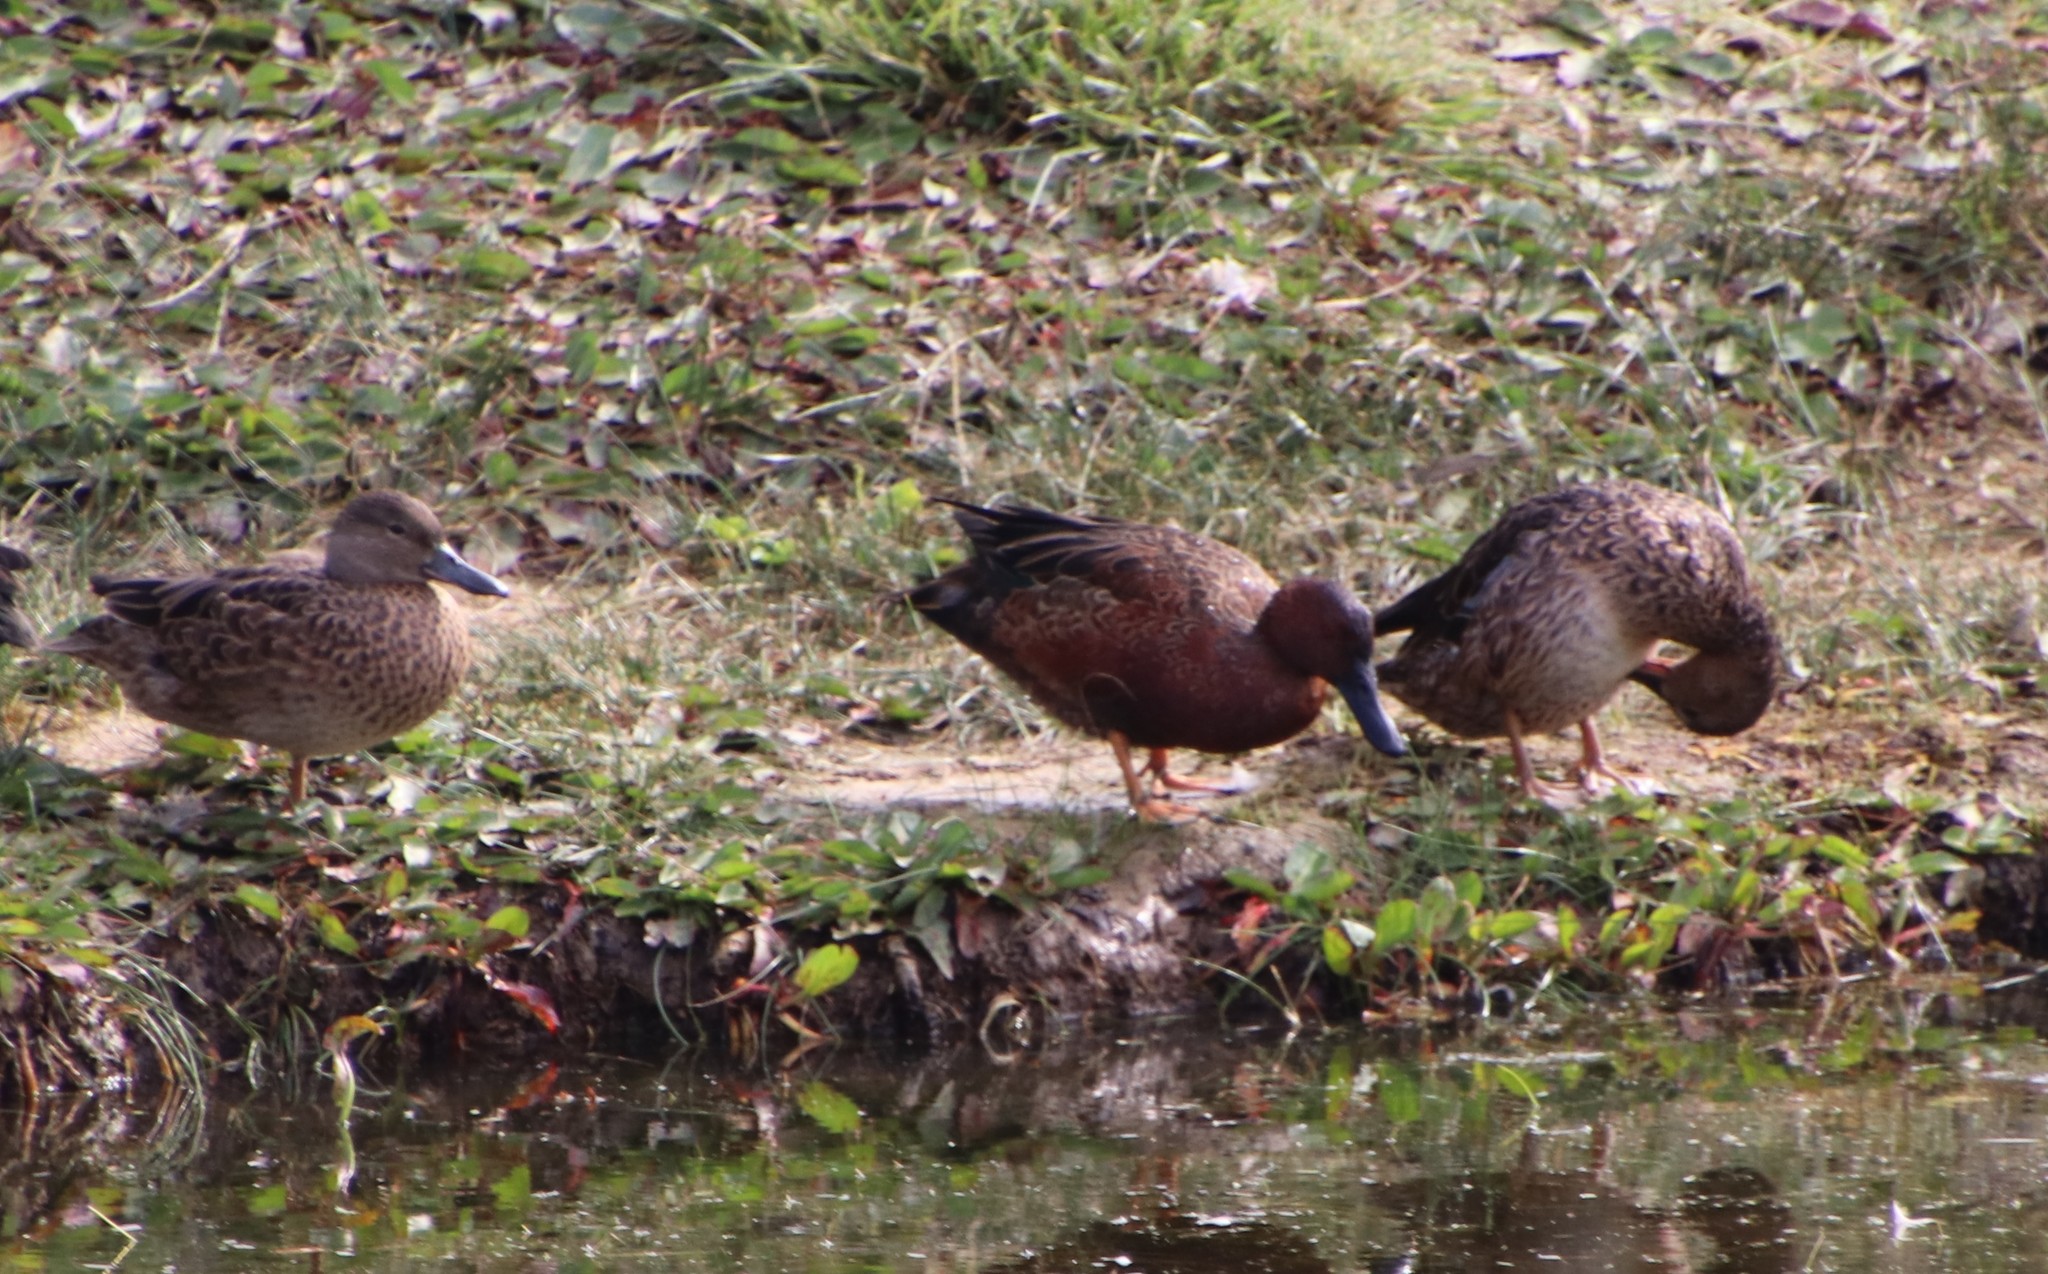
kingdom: Animalia
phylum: Chordata
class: Aves
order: Anseriformes
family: Anatidae
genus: Spatula
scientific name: Spatula cyanoptera
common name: Cinnamon teal
